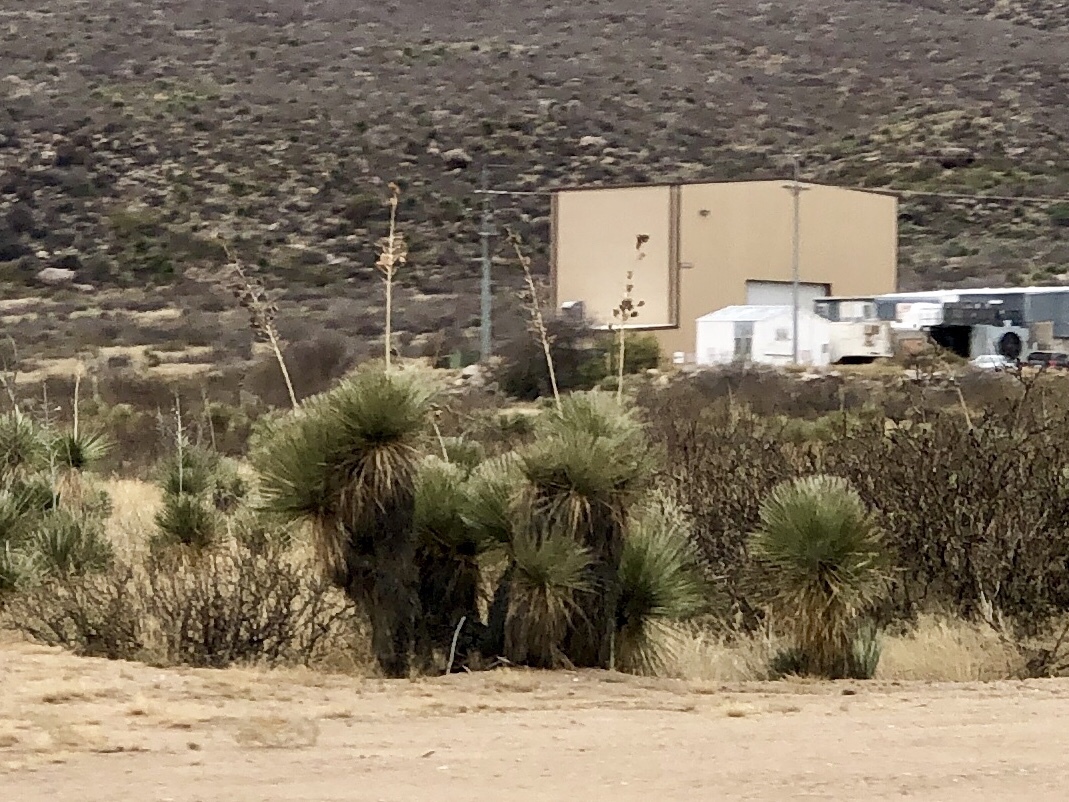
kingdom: Plantae
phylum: Tracheophyta
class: Liliopsida
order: Asparagales
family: Asparagaceae
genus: Yucca
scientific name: Yucca elata
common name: Palmella
